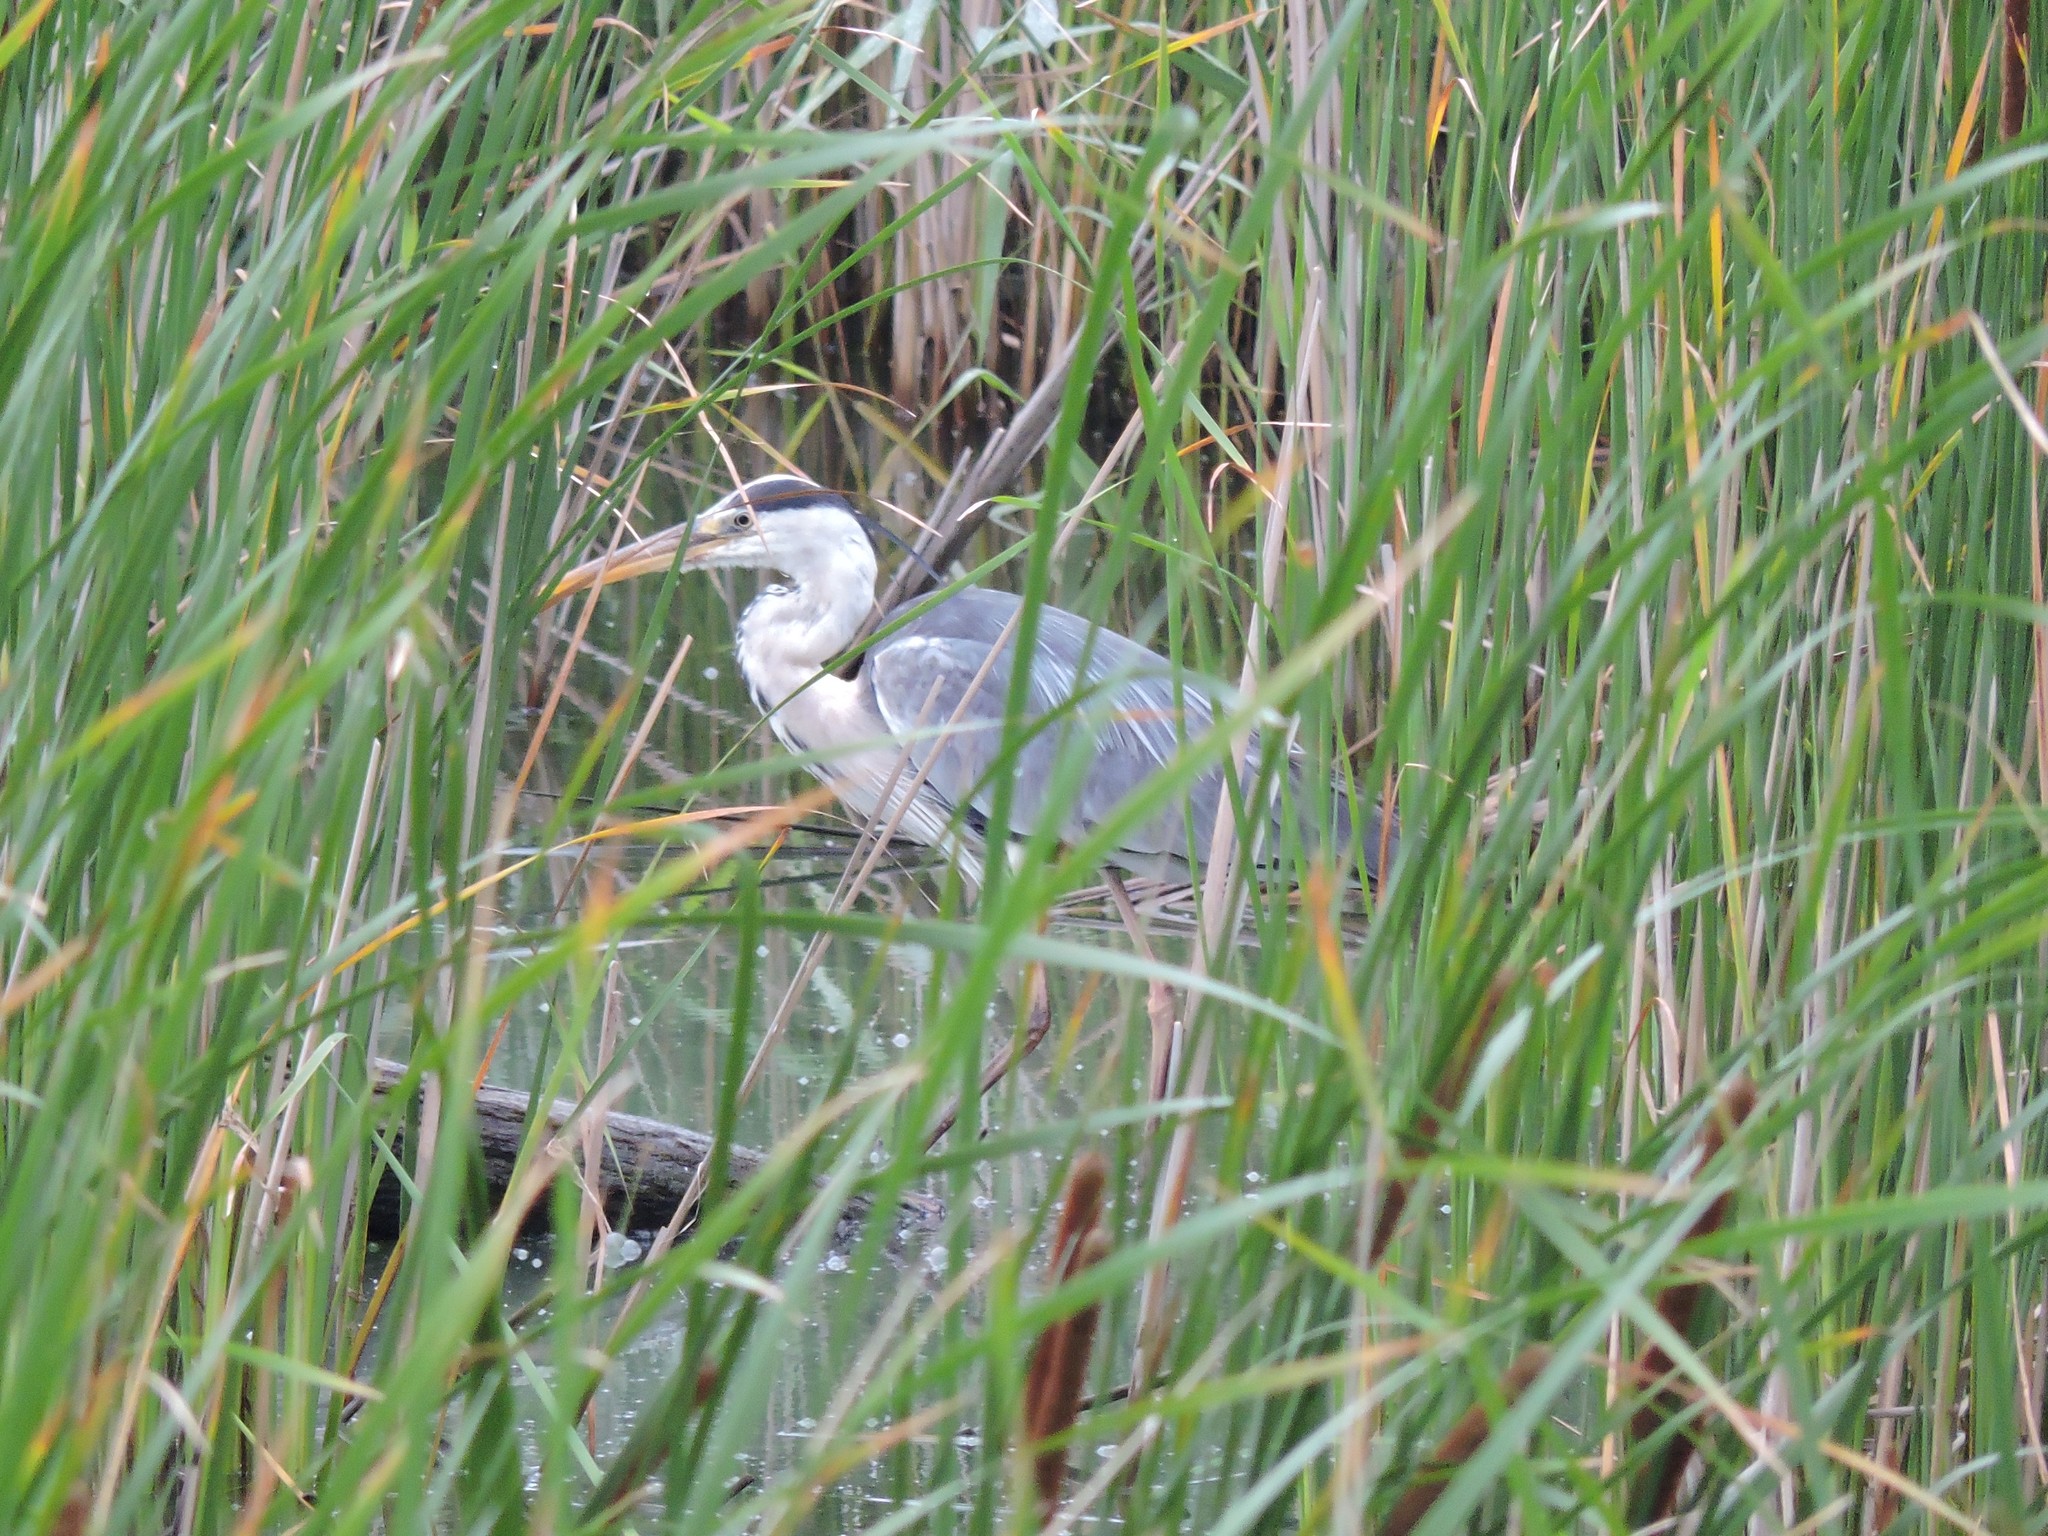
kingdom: Animalia
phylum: Chordata
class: Aves
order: Pelecaniformes
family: Ardeidae
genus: Ardea
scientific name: Ardea cinerea
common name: Grey heron
